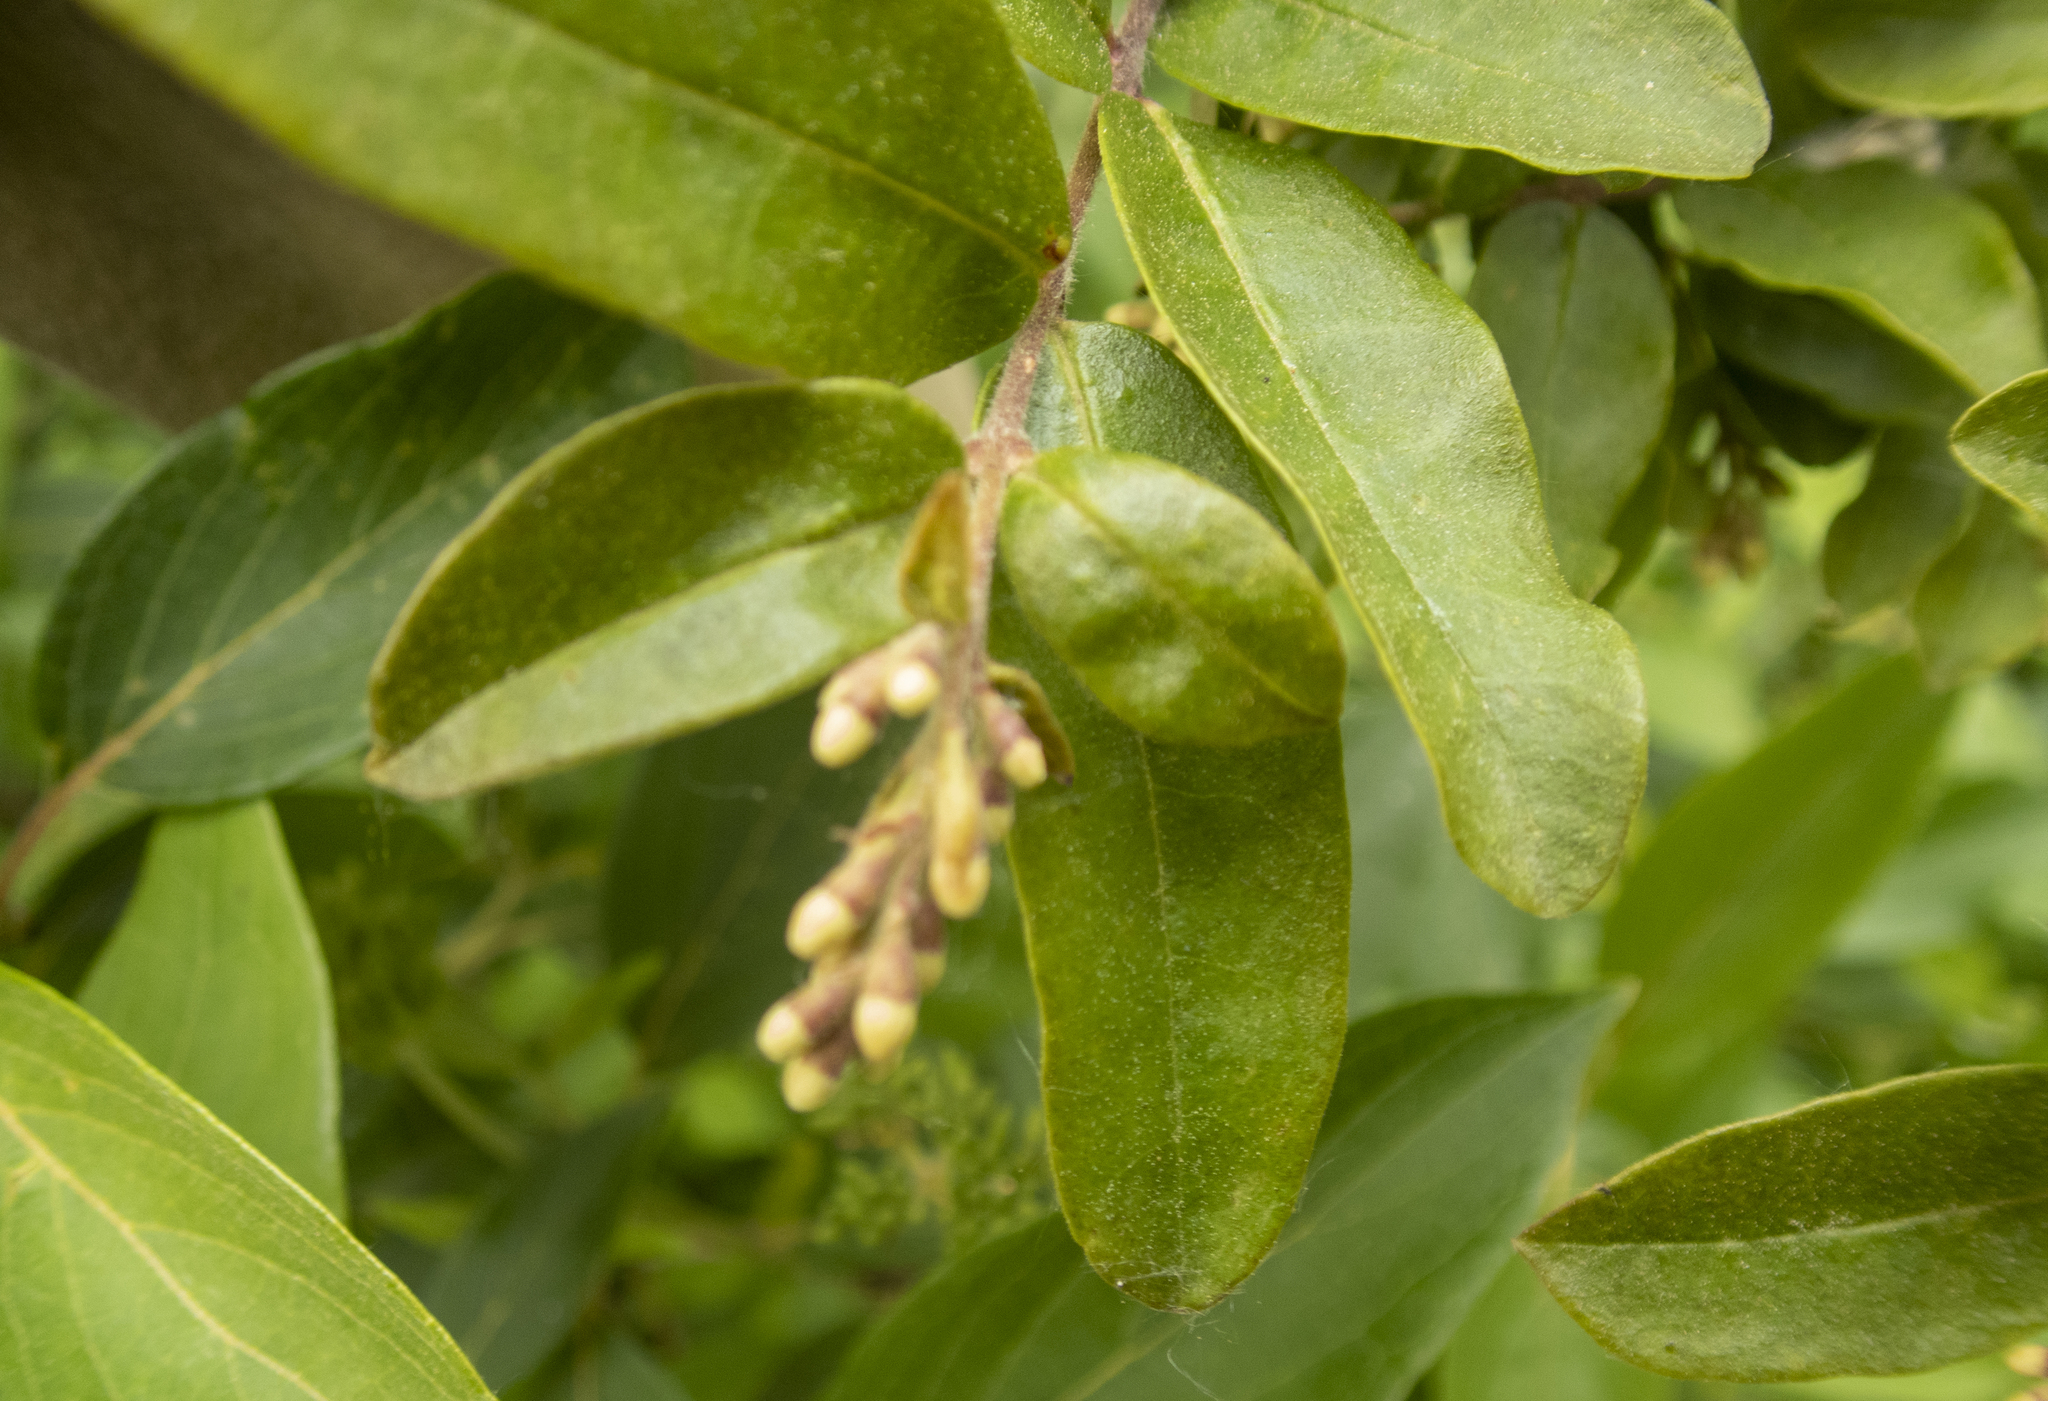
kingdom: Plantae
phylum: Tracheophyta
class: Magnoliopsida
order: Lamiales
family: Oleaceae
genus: Ligustrum
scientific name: Ligustrum obtusifolium
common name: Border privet
